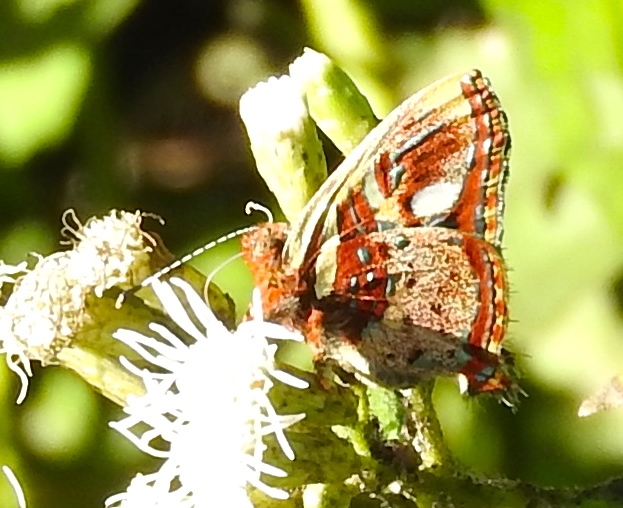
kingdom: Animalia
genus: Anteros
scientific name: Anteros carausius
